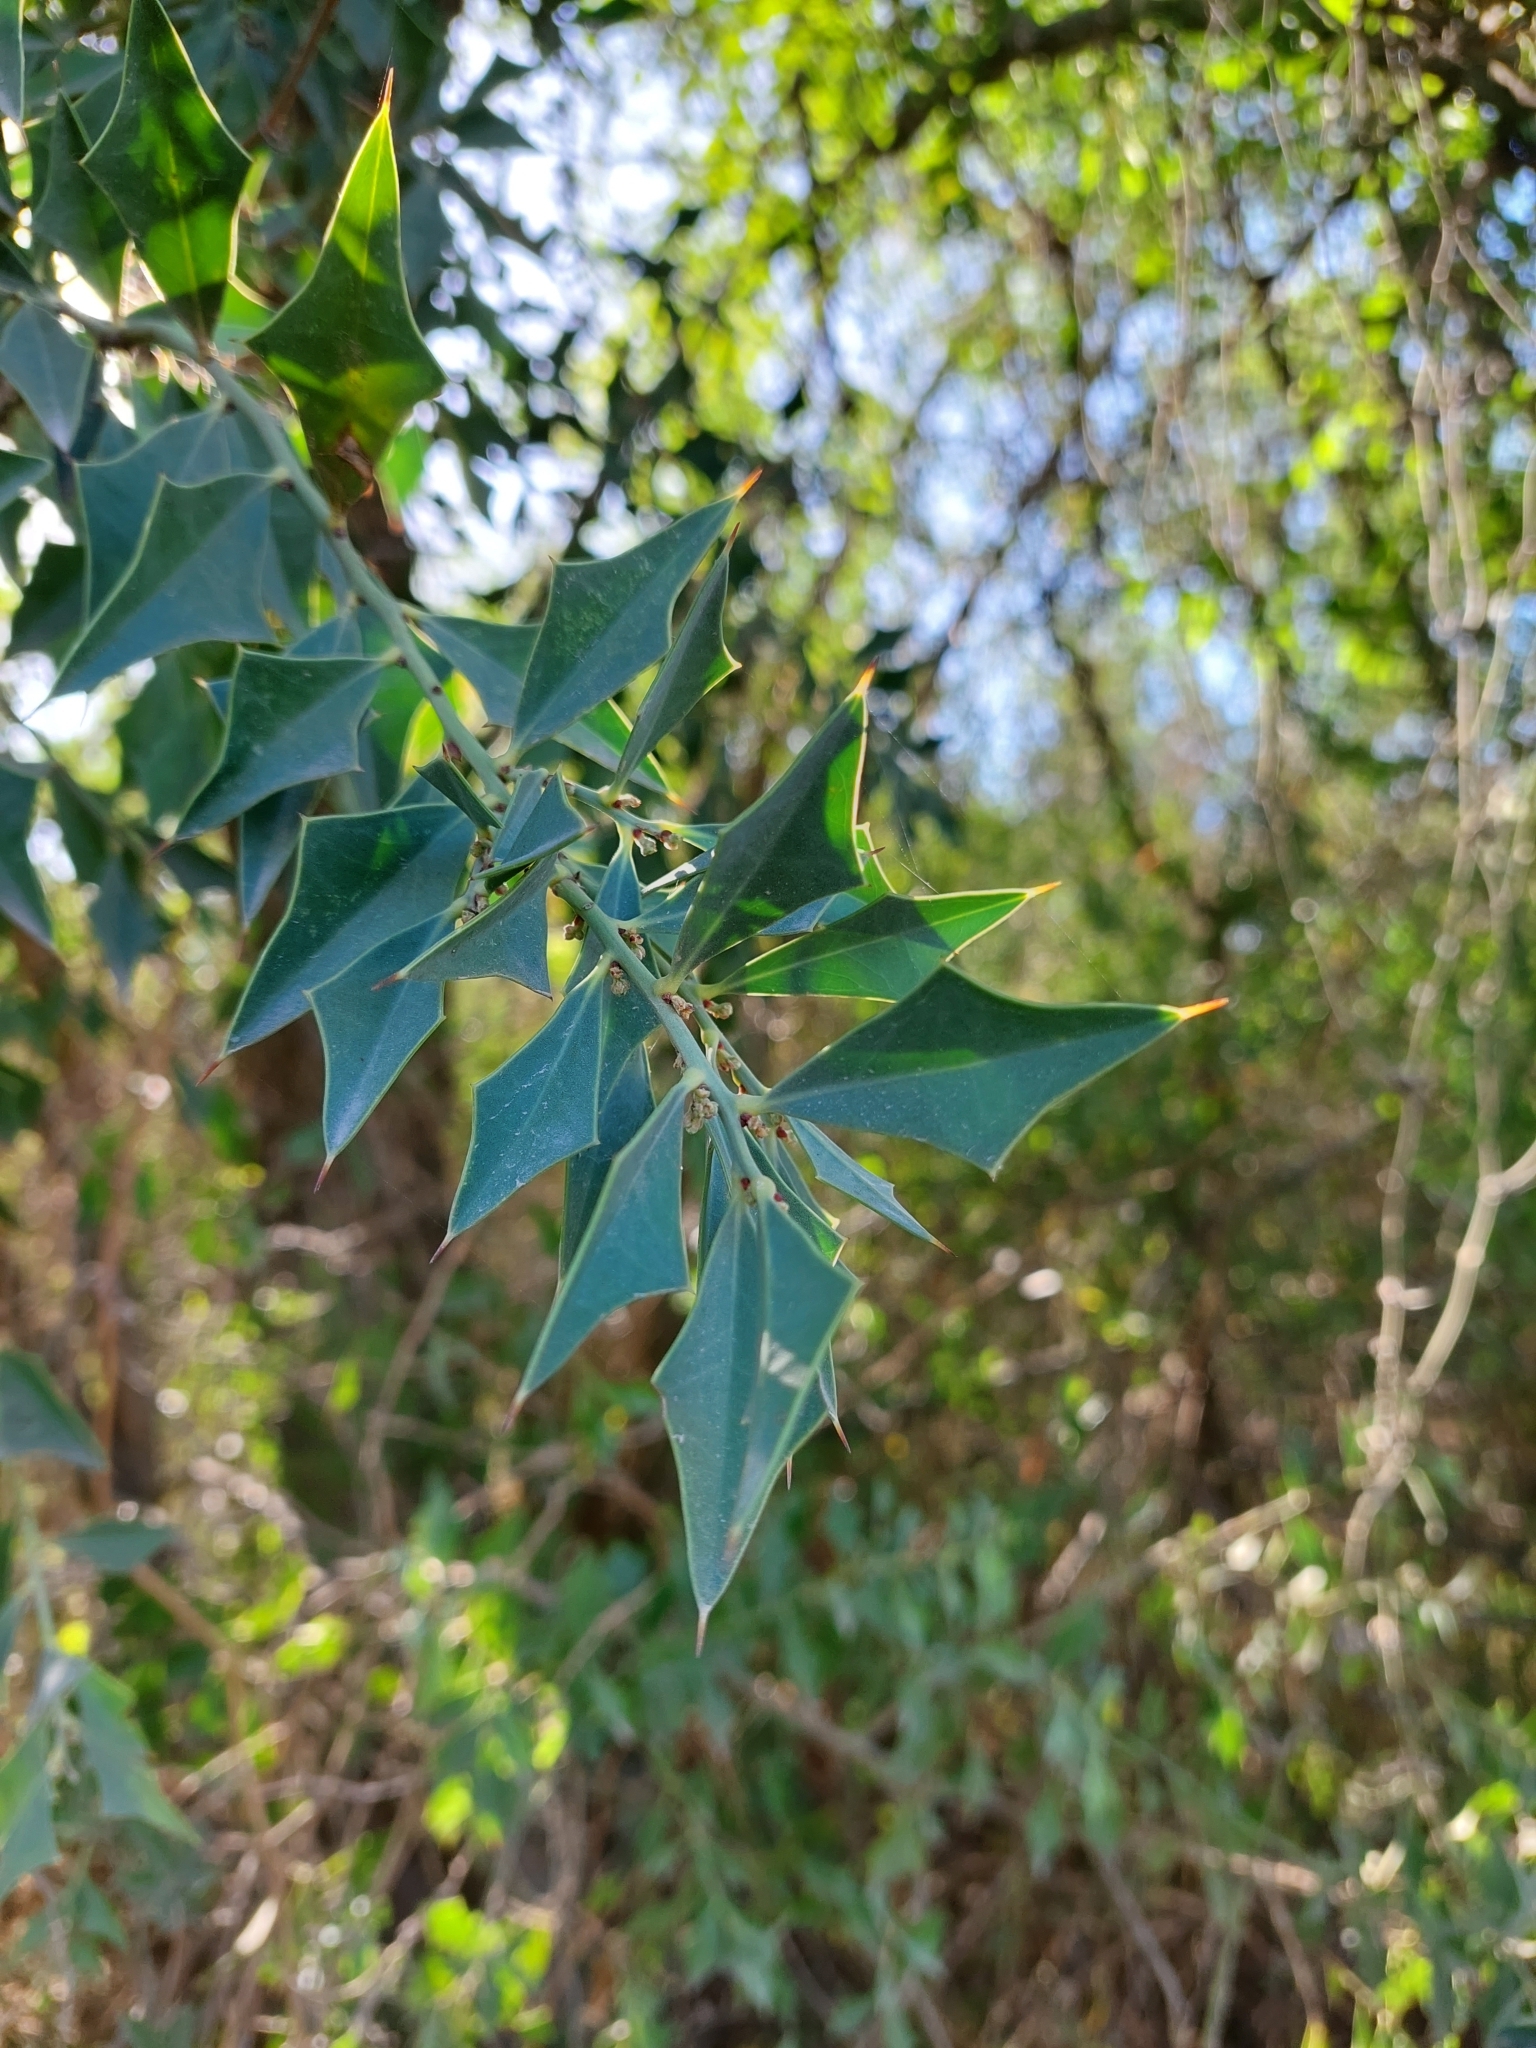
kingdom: Plantae
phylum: Tracheophyta
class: Magnoliopsida
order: Santalales
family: Cervantesiaceae
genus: Jodina
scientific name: Jodina rhombifolia
